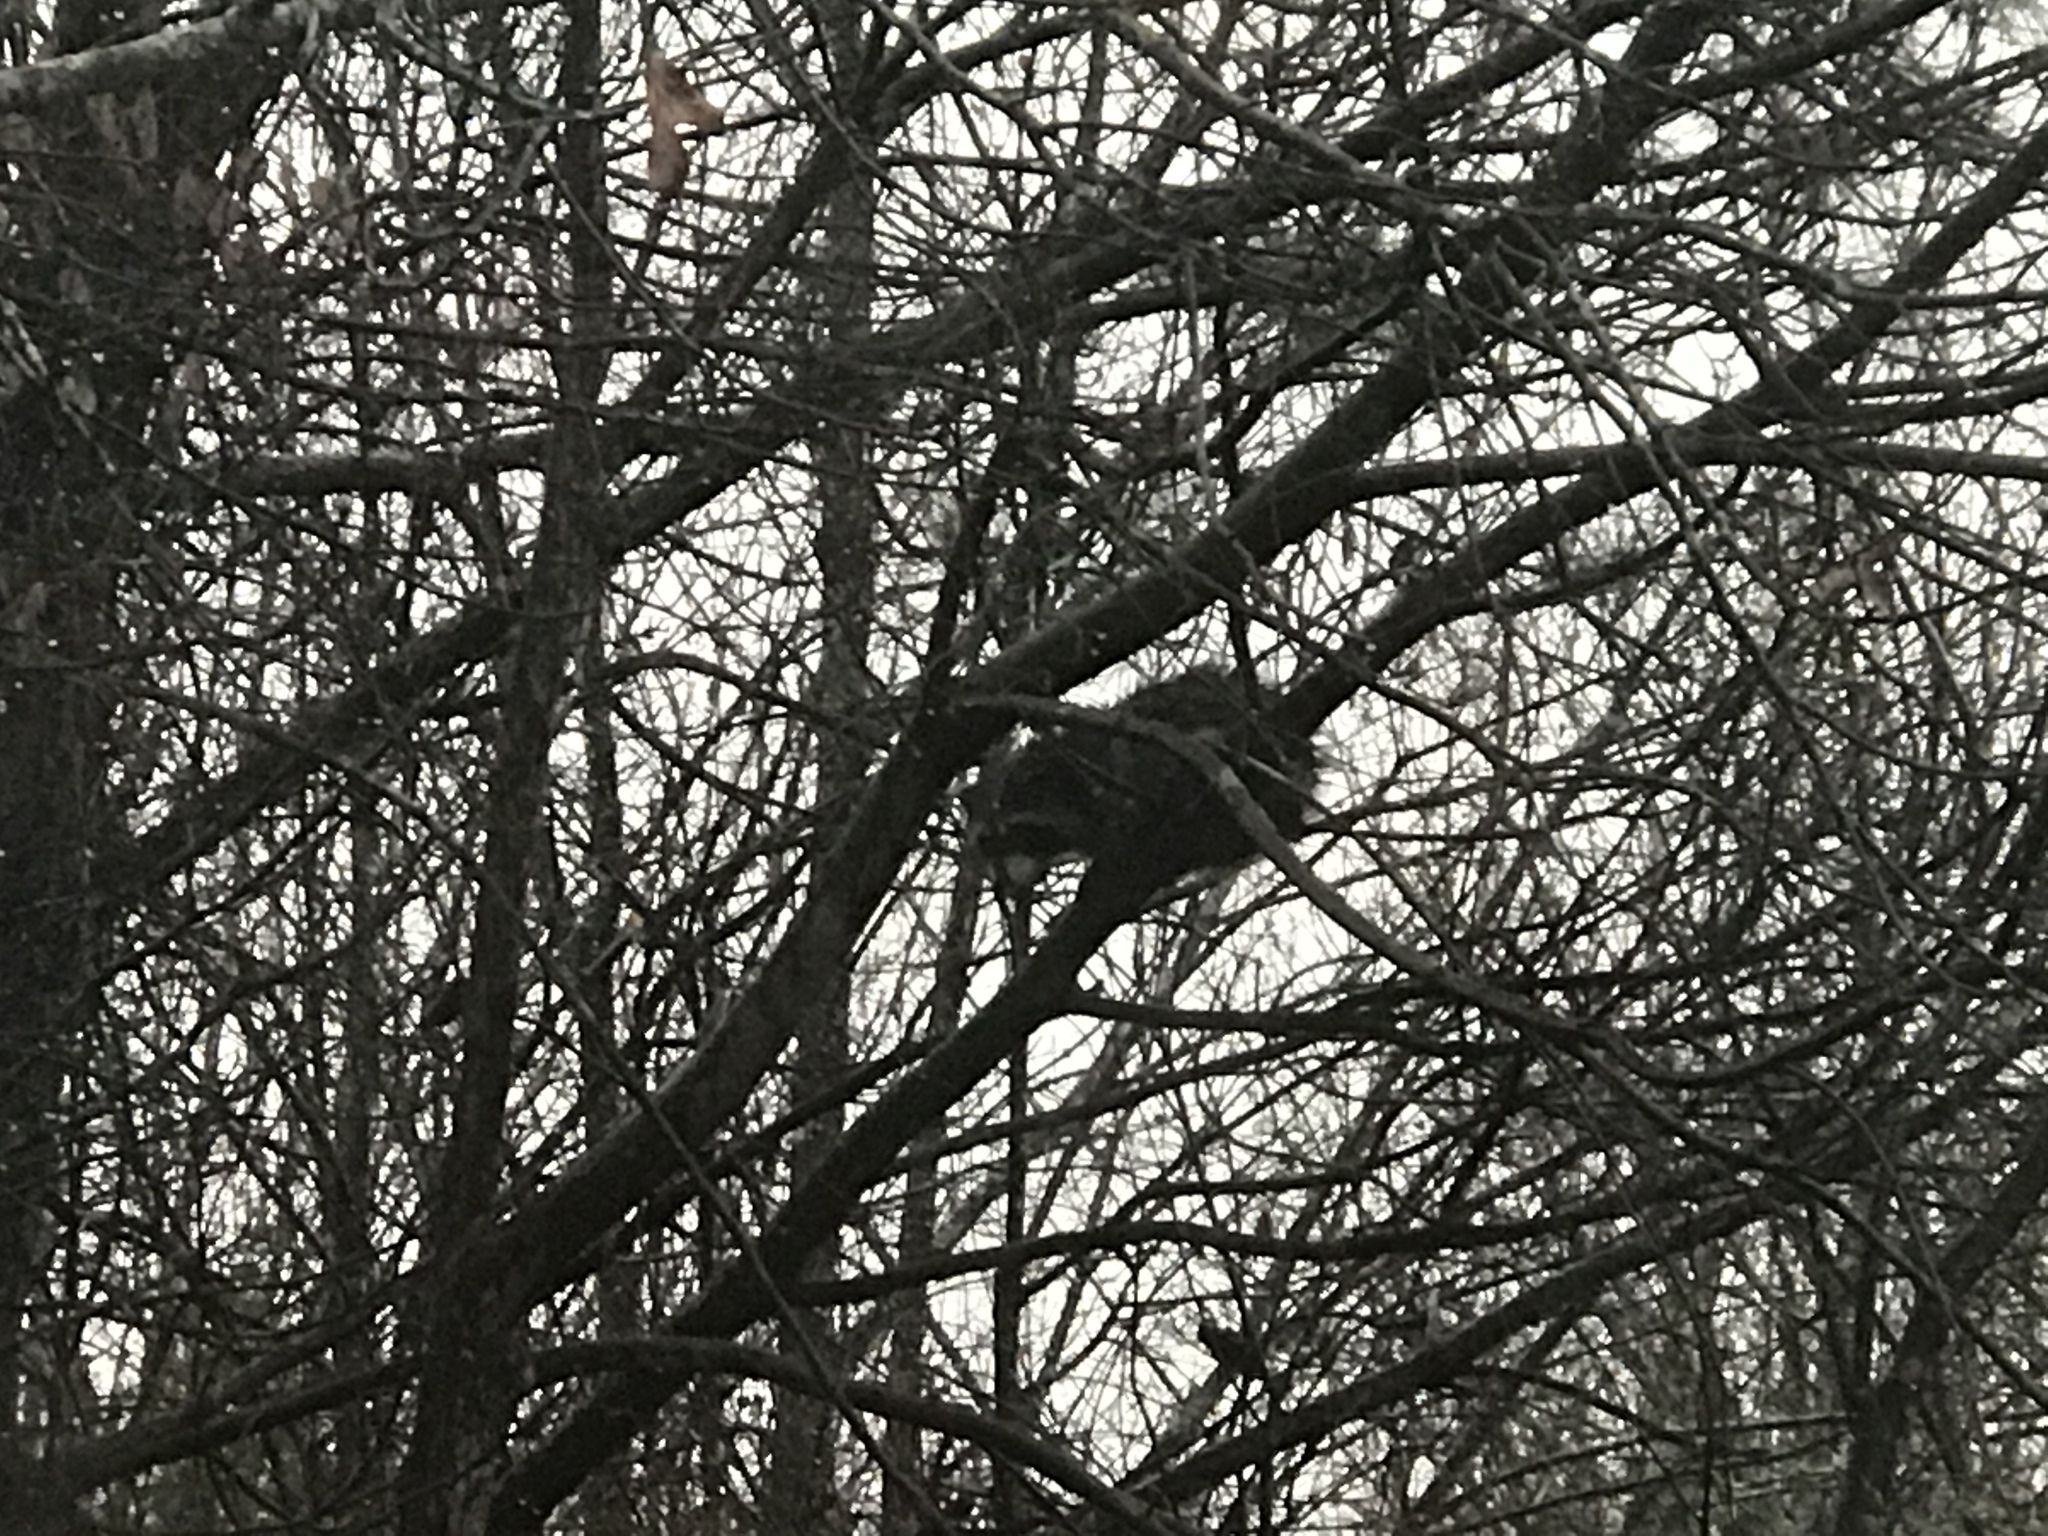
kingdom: Animalia
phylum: Chordata
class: Mammalia
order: Carnivora
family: Procyonidae
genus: Procyon
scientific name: Procyon lotor
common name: Raccoon
